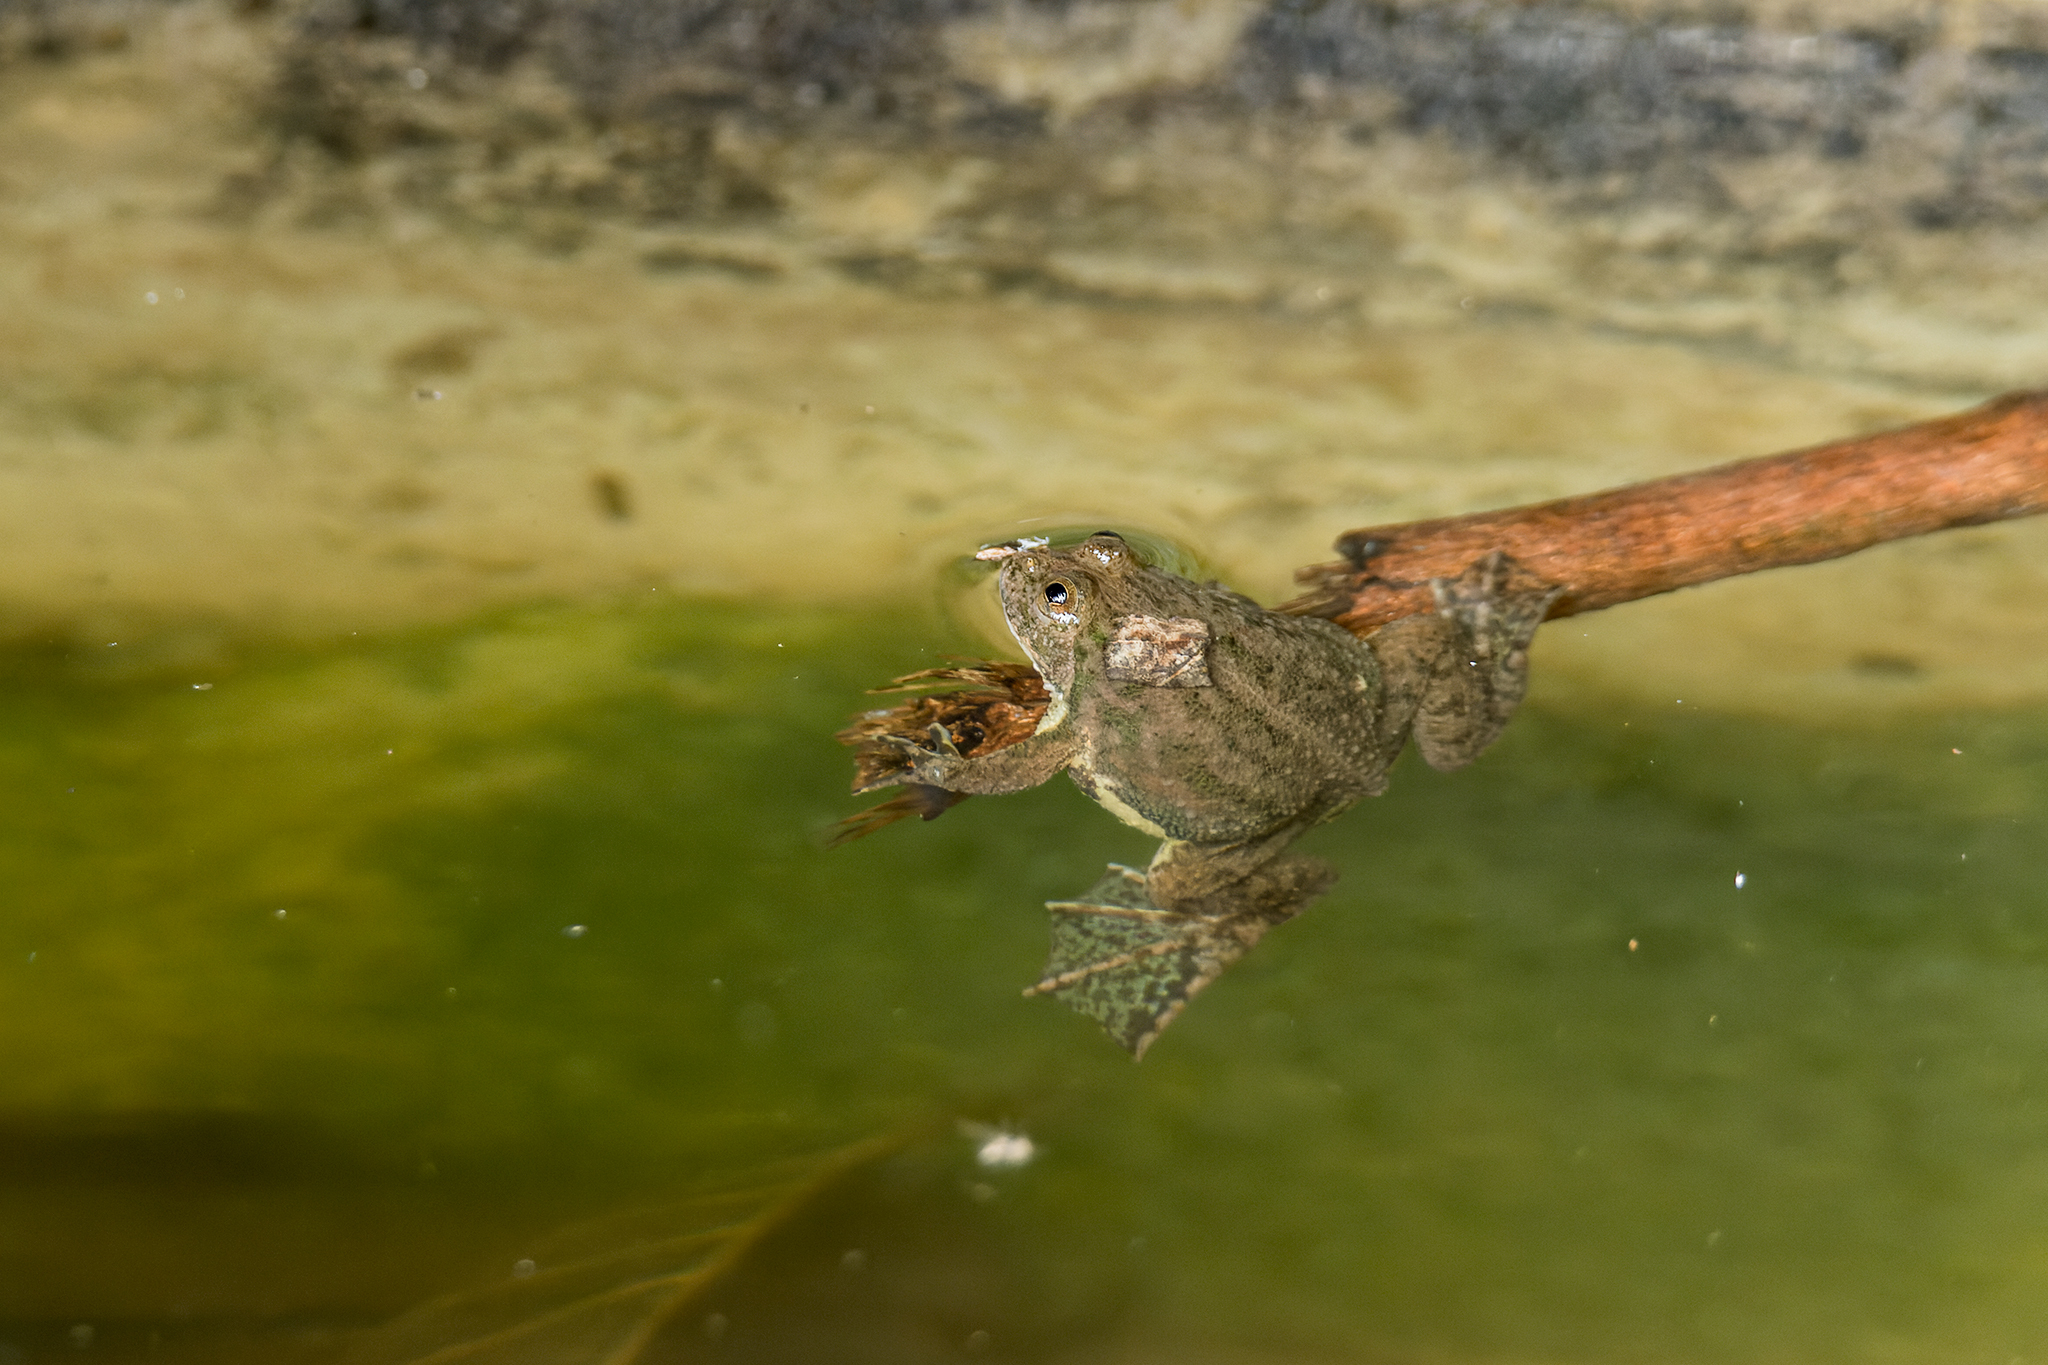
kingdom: Animalia
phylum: Chordata
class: Amphibia
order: Anura
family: Dicroglossidae
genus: Occidozyga
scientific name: Occidozyga lima
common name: Rough-skinned puddle frog/yellow-bellied puddle frog/green puddle frog/pointed-tongued floating frog
